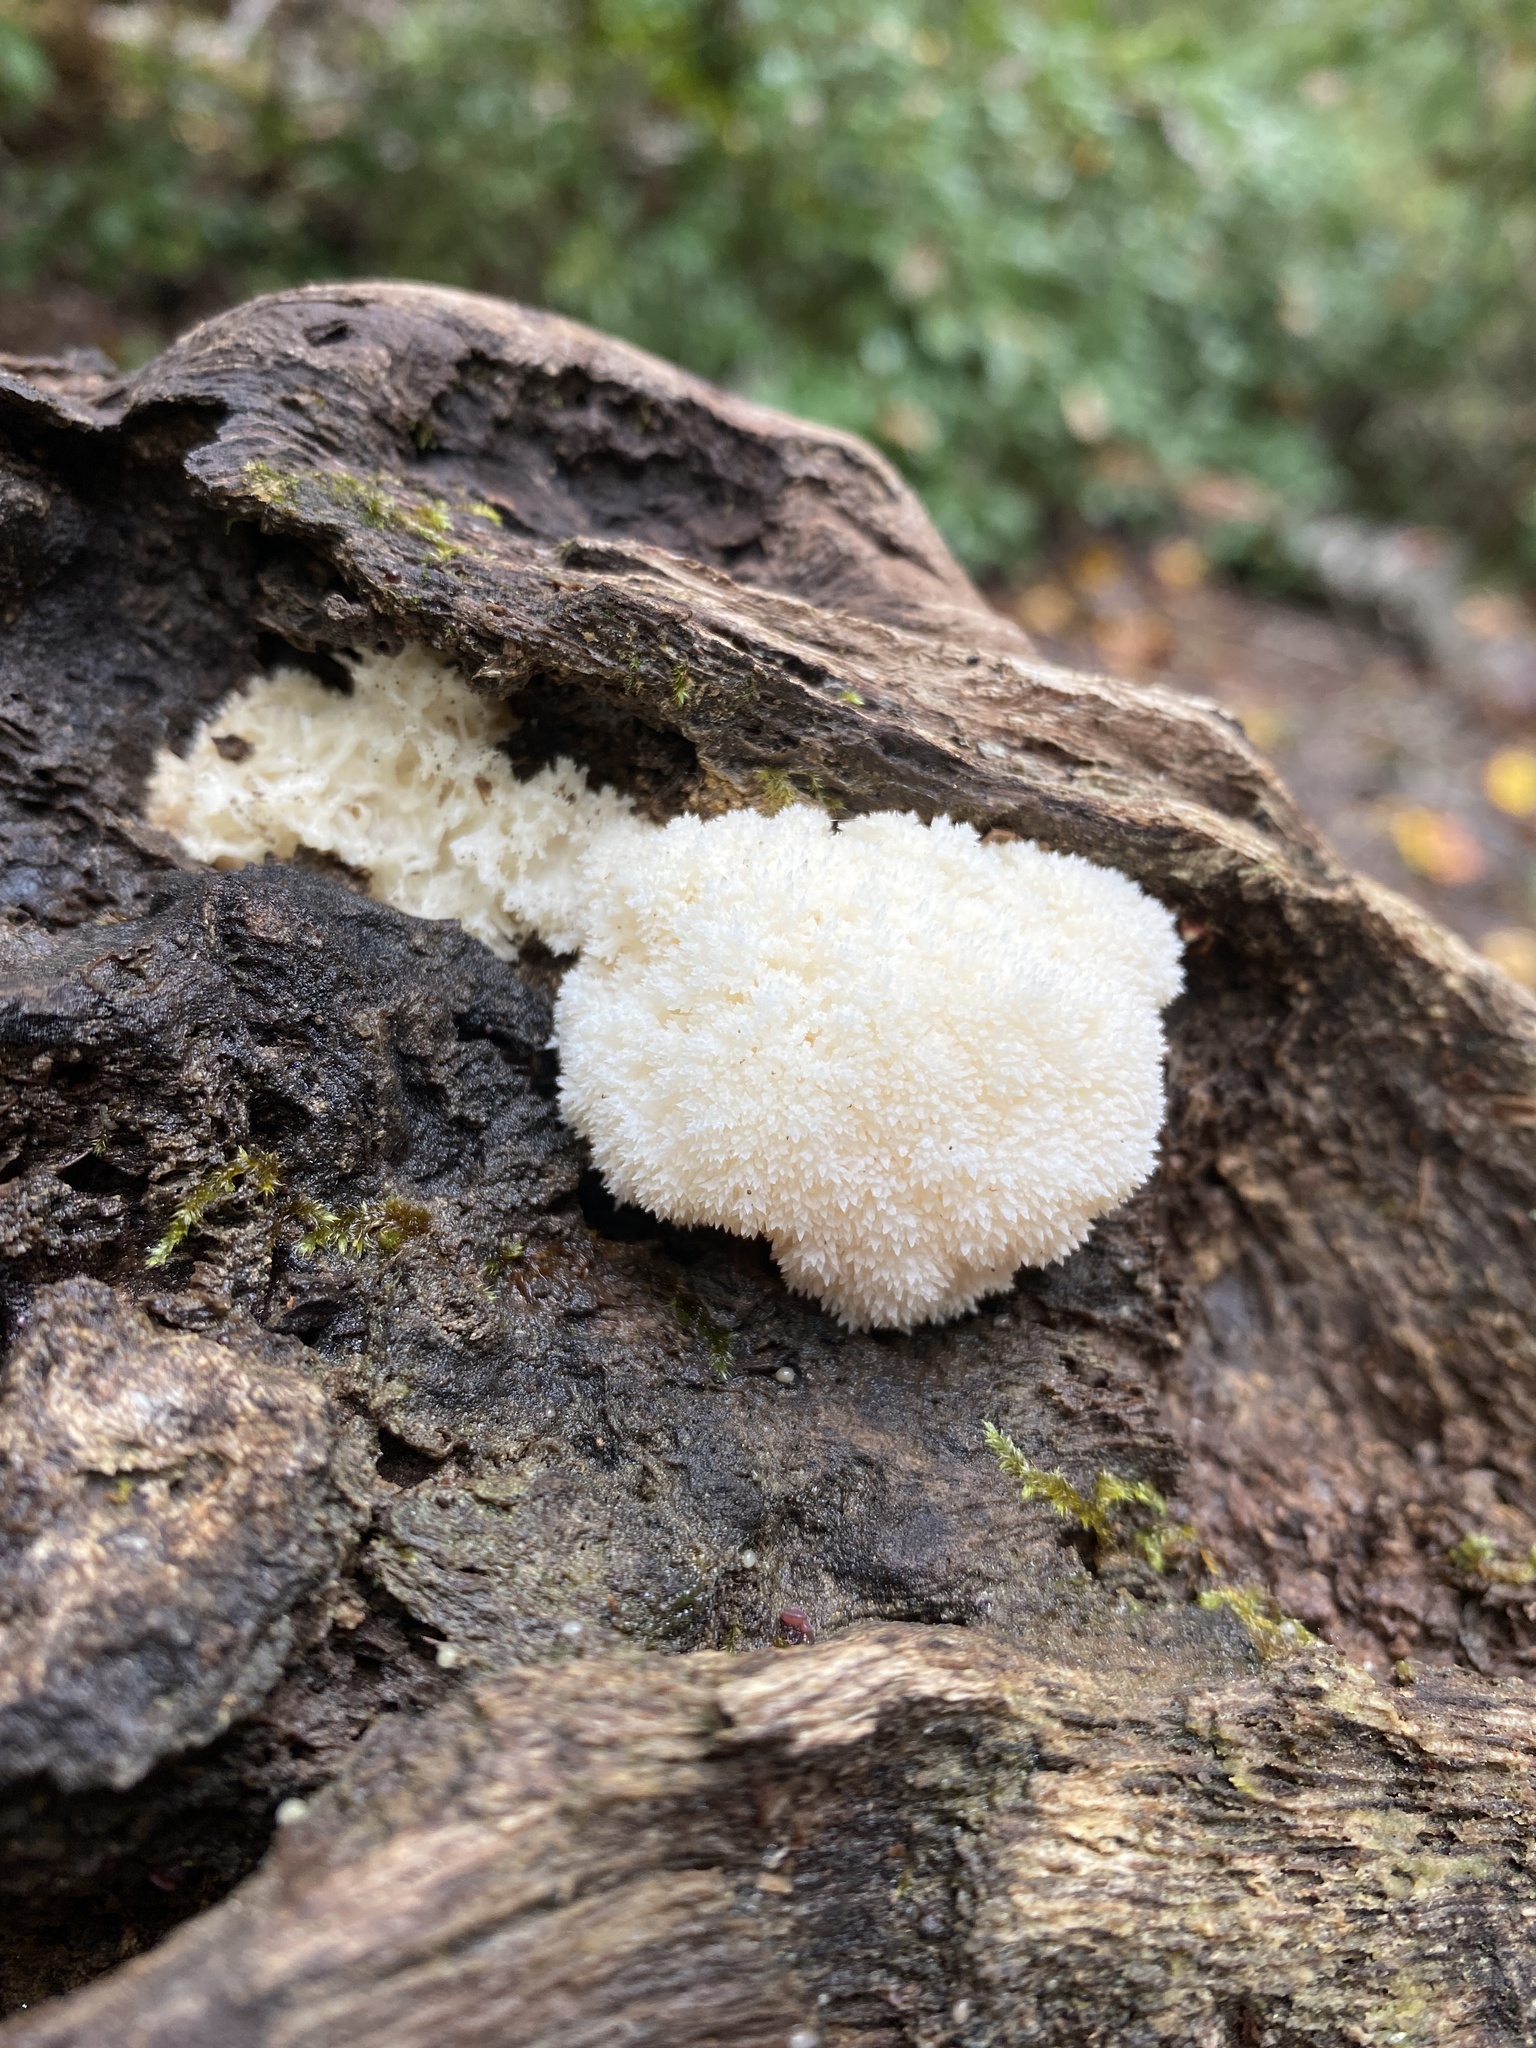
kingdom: Fungi
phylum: Basidiomycota
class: Agaricomycetes
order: Russulales
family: Hericiaceae
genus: Hericium
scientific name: Hericium erinaceus
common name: Bearded tooth
